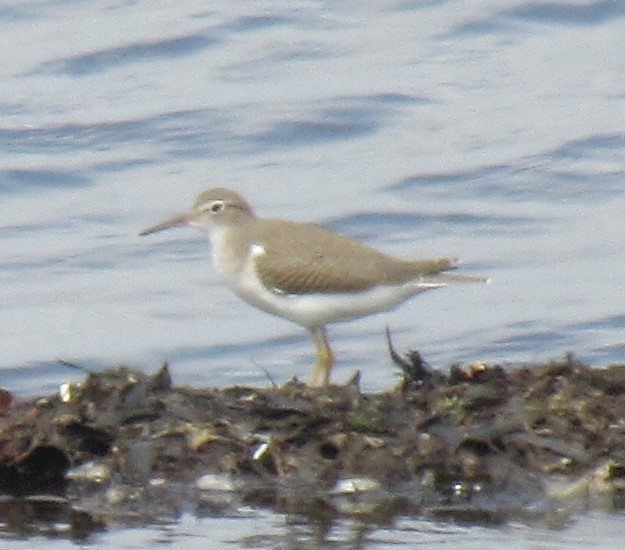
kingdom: Animalia
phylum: Chordata
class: Aves
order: Charadriiformes
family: Scolopacidae
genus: Actitis
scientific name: Actitis macularius
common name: Spotted sandpiper
